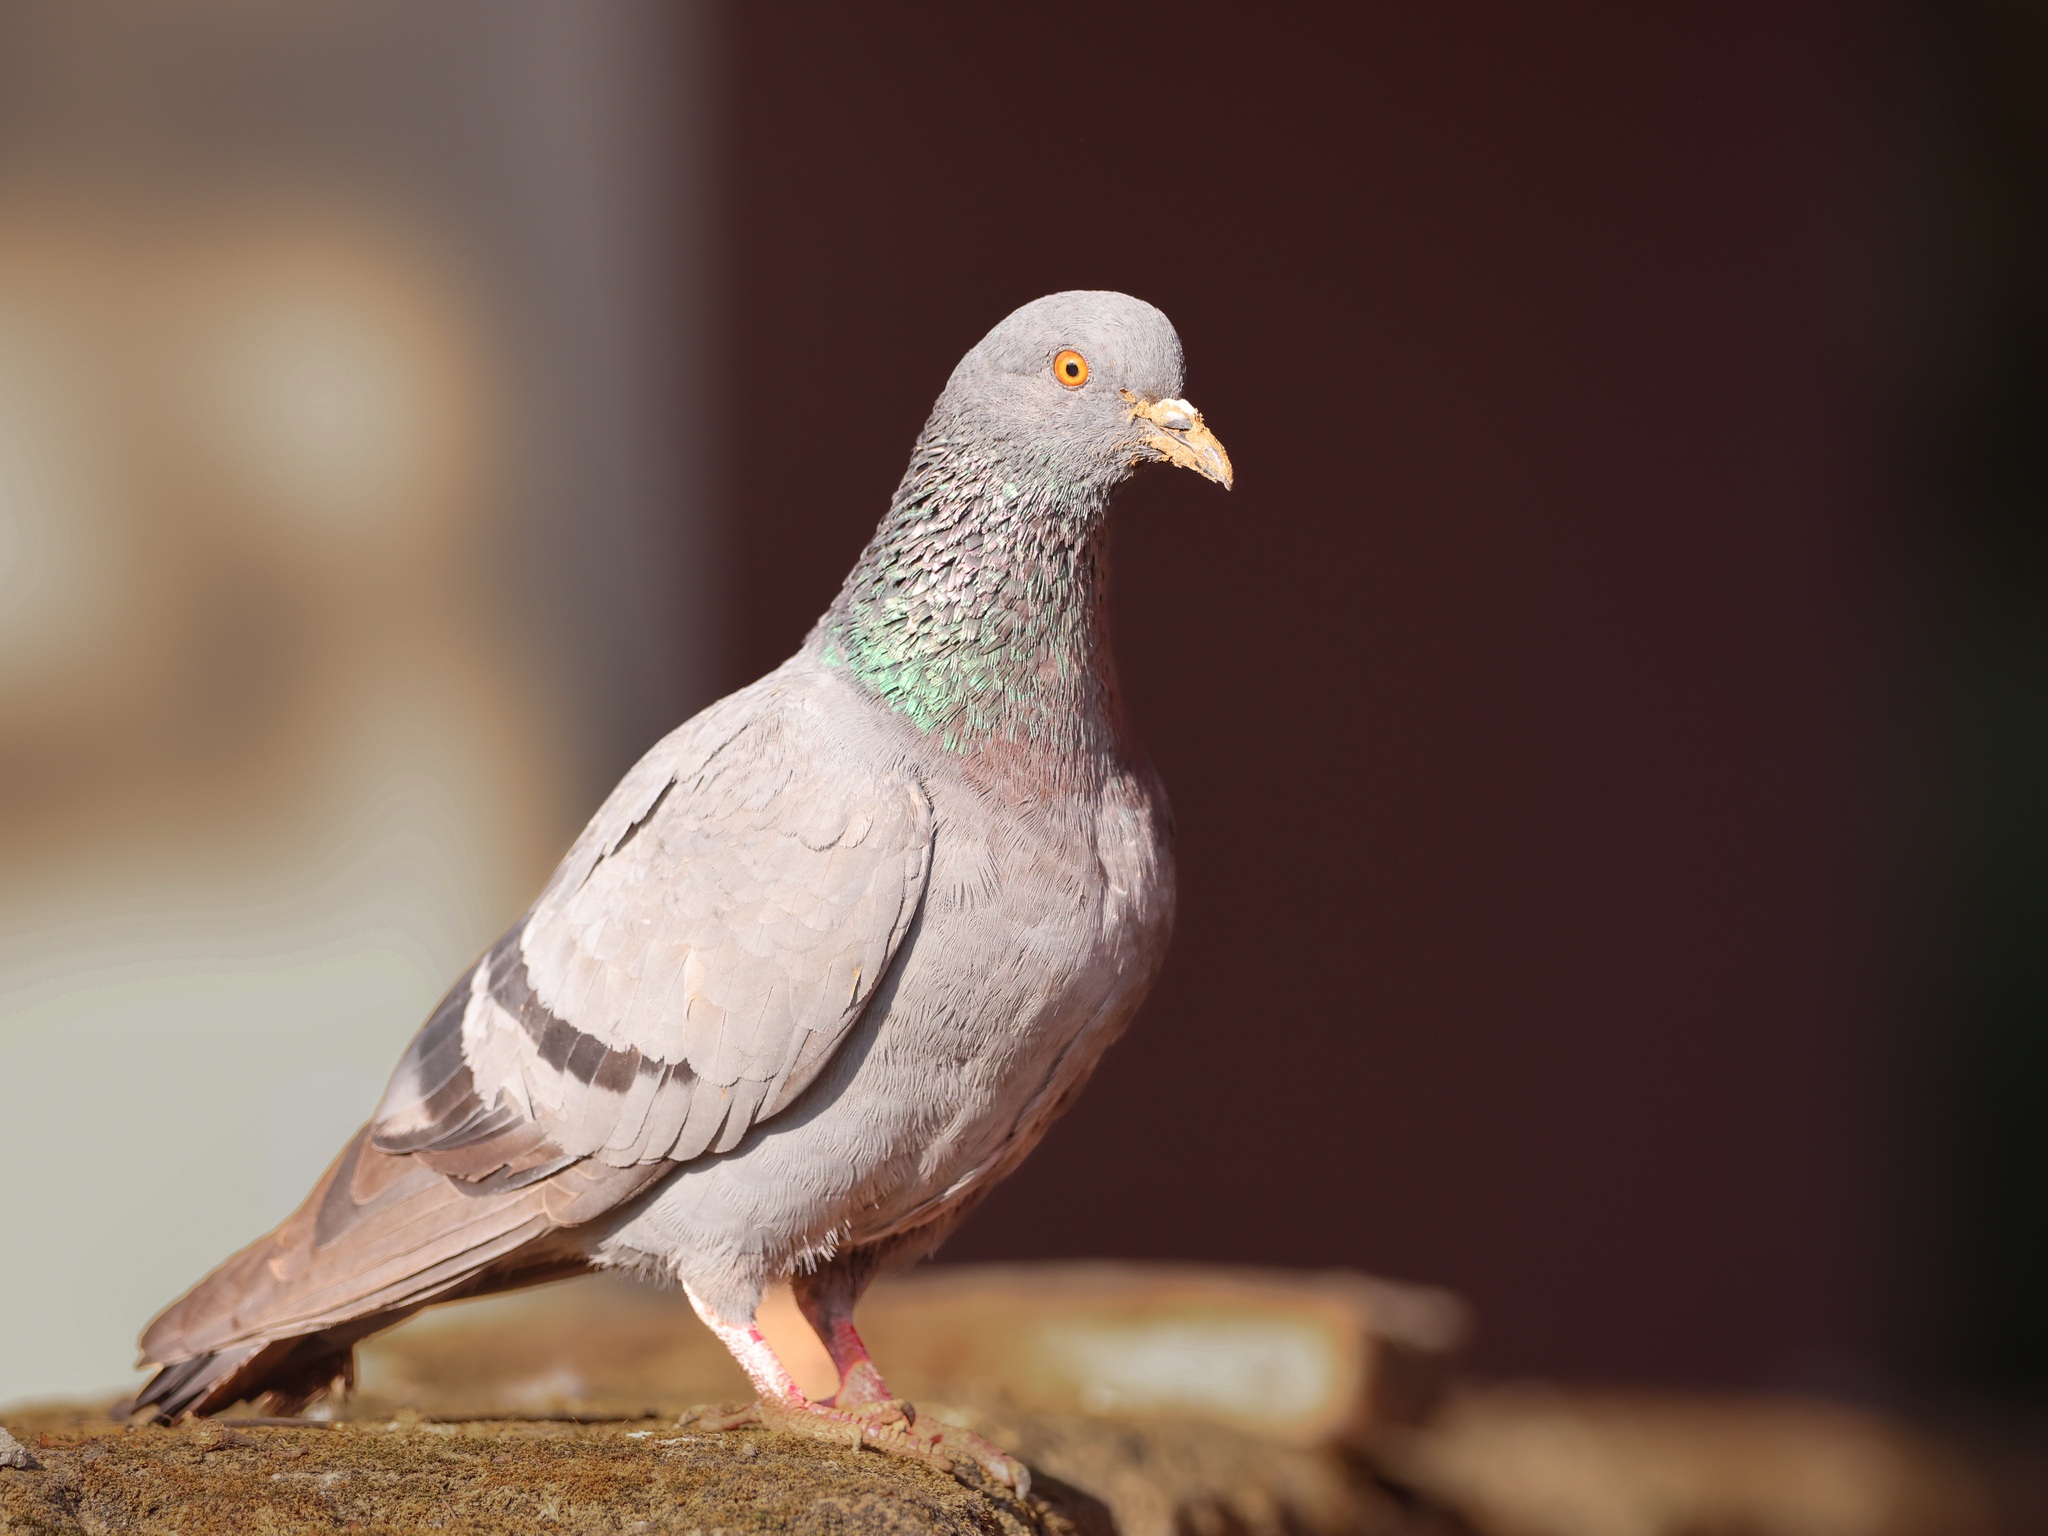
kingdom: Animalia
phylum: Chordata
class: Aves
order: Columbiformes
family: Columbidae
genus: Columba
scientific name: Columba livia
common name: Rock pigeon
